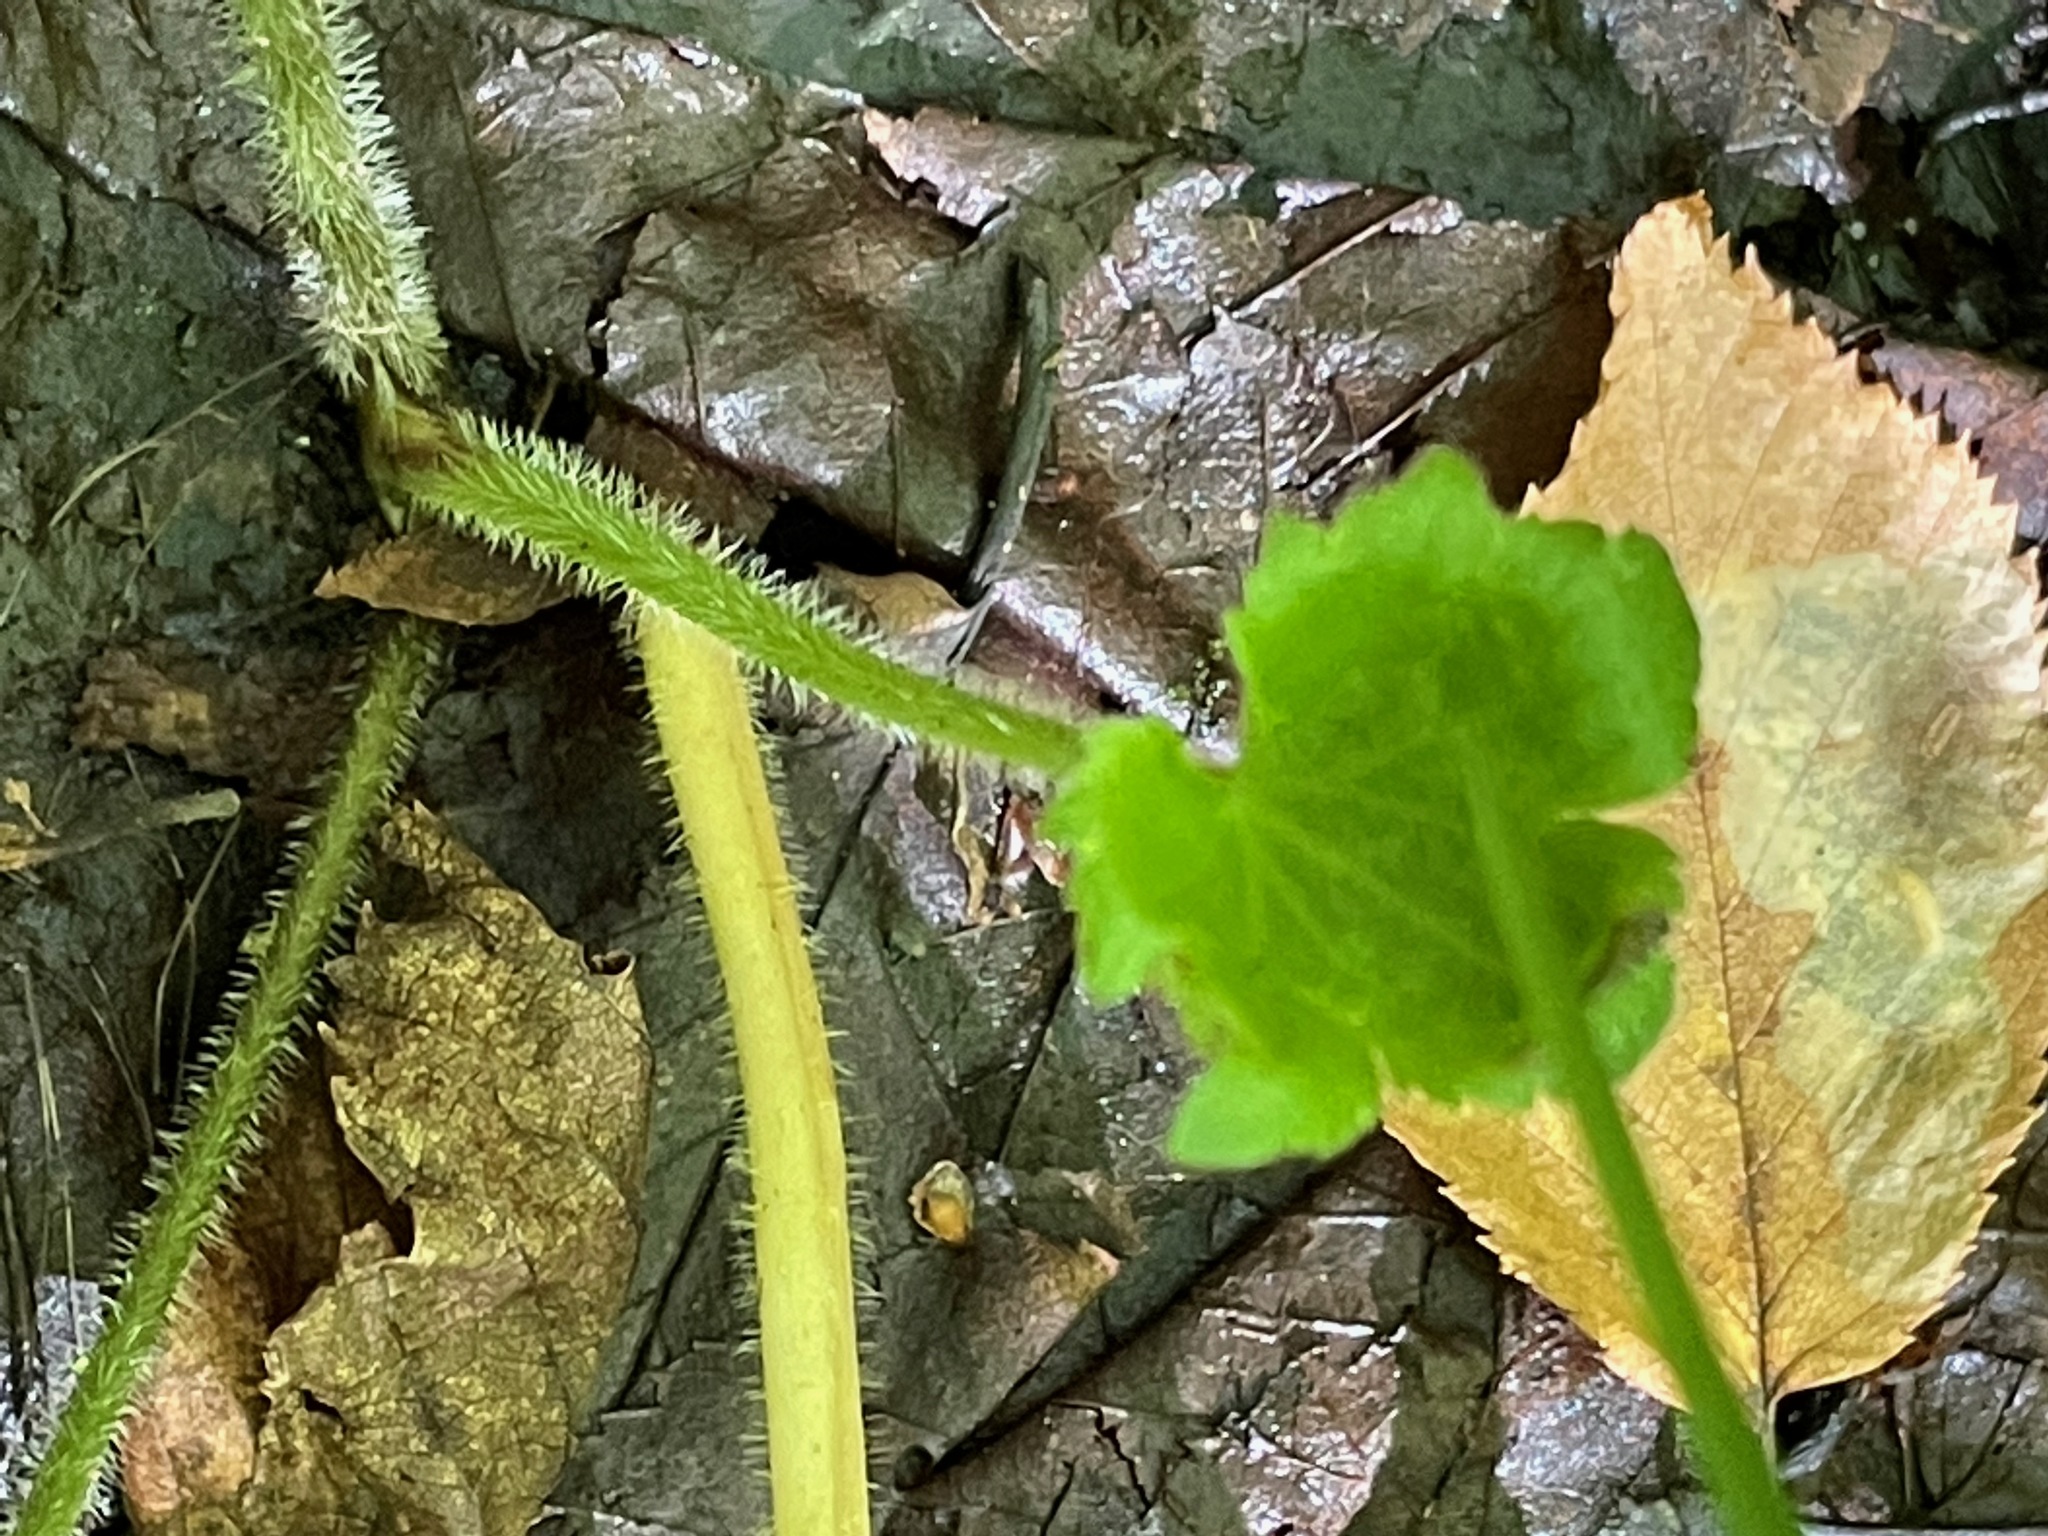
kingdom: Plantae
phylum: Tracheophyta
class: Magnoliopsida
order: Ranunculales
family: Ranunculaceae
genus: Ranunculus
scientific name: Ranunculus recurvatus
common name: Blisterwort
